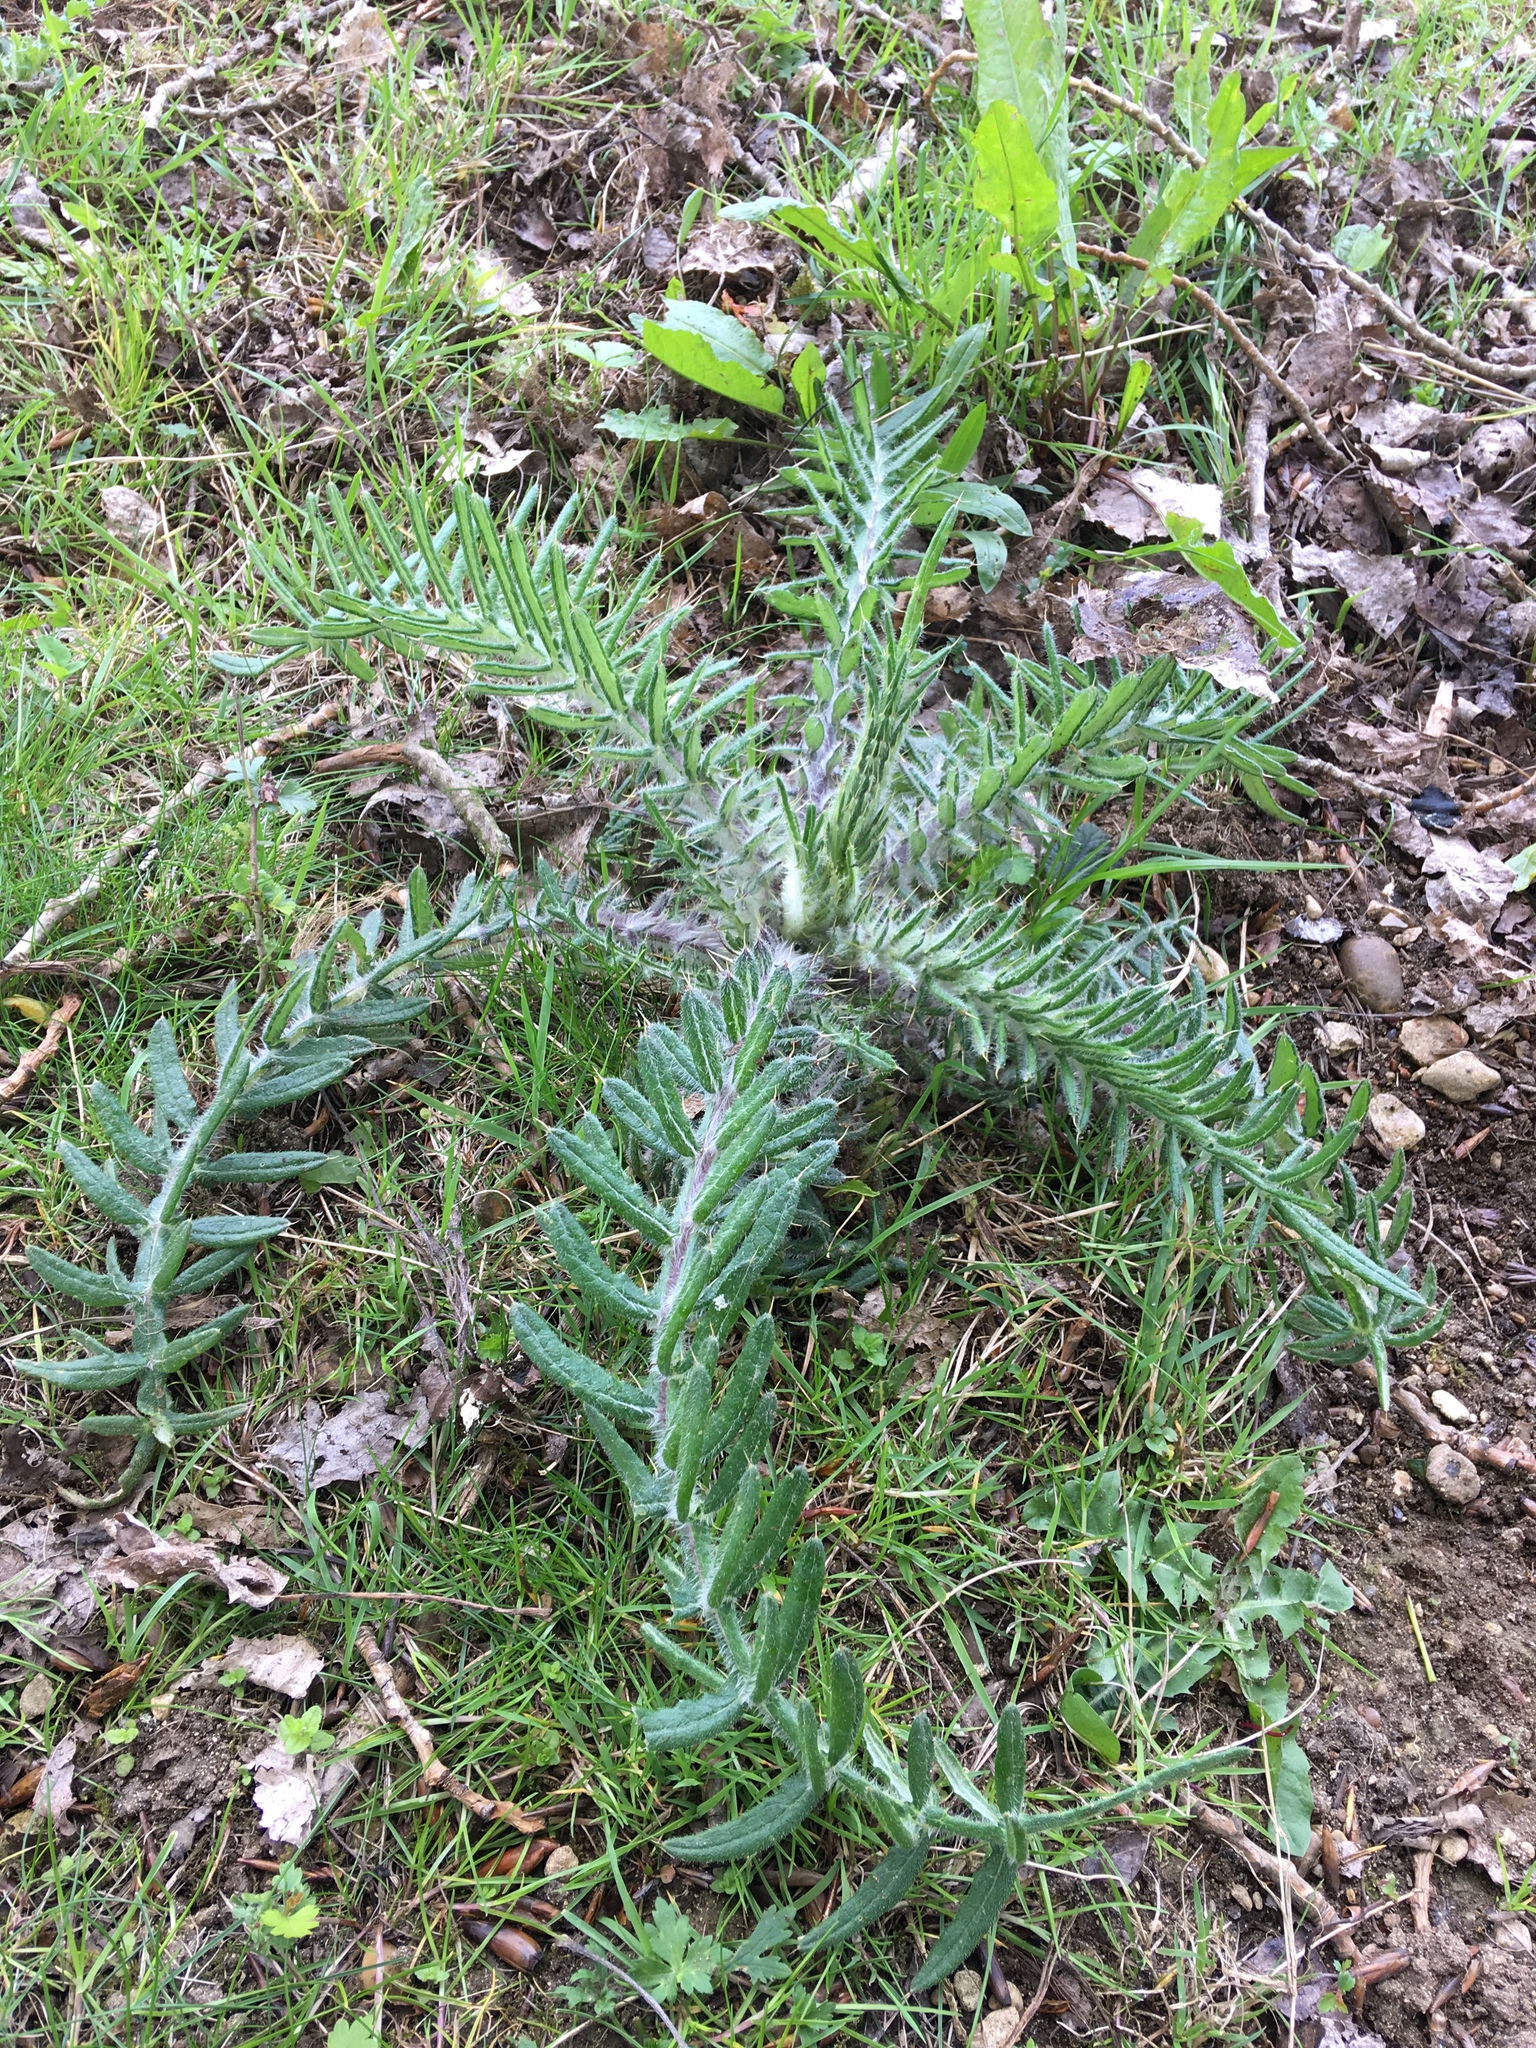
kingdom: Plantae
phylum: Tracheophyta
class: Magnoliopsida
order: Asterales
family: Asteraceae
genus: Lophiolepis
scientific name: Lophiolepis eriophora
